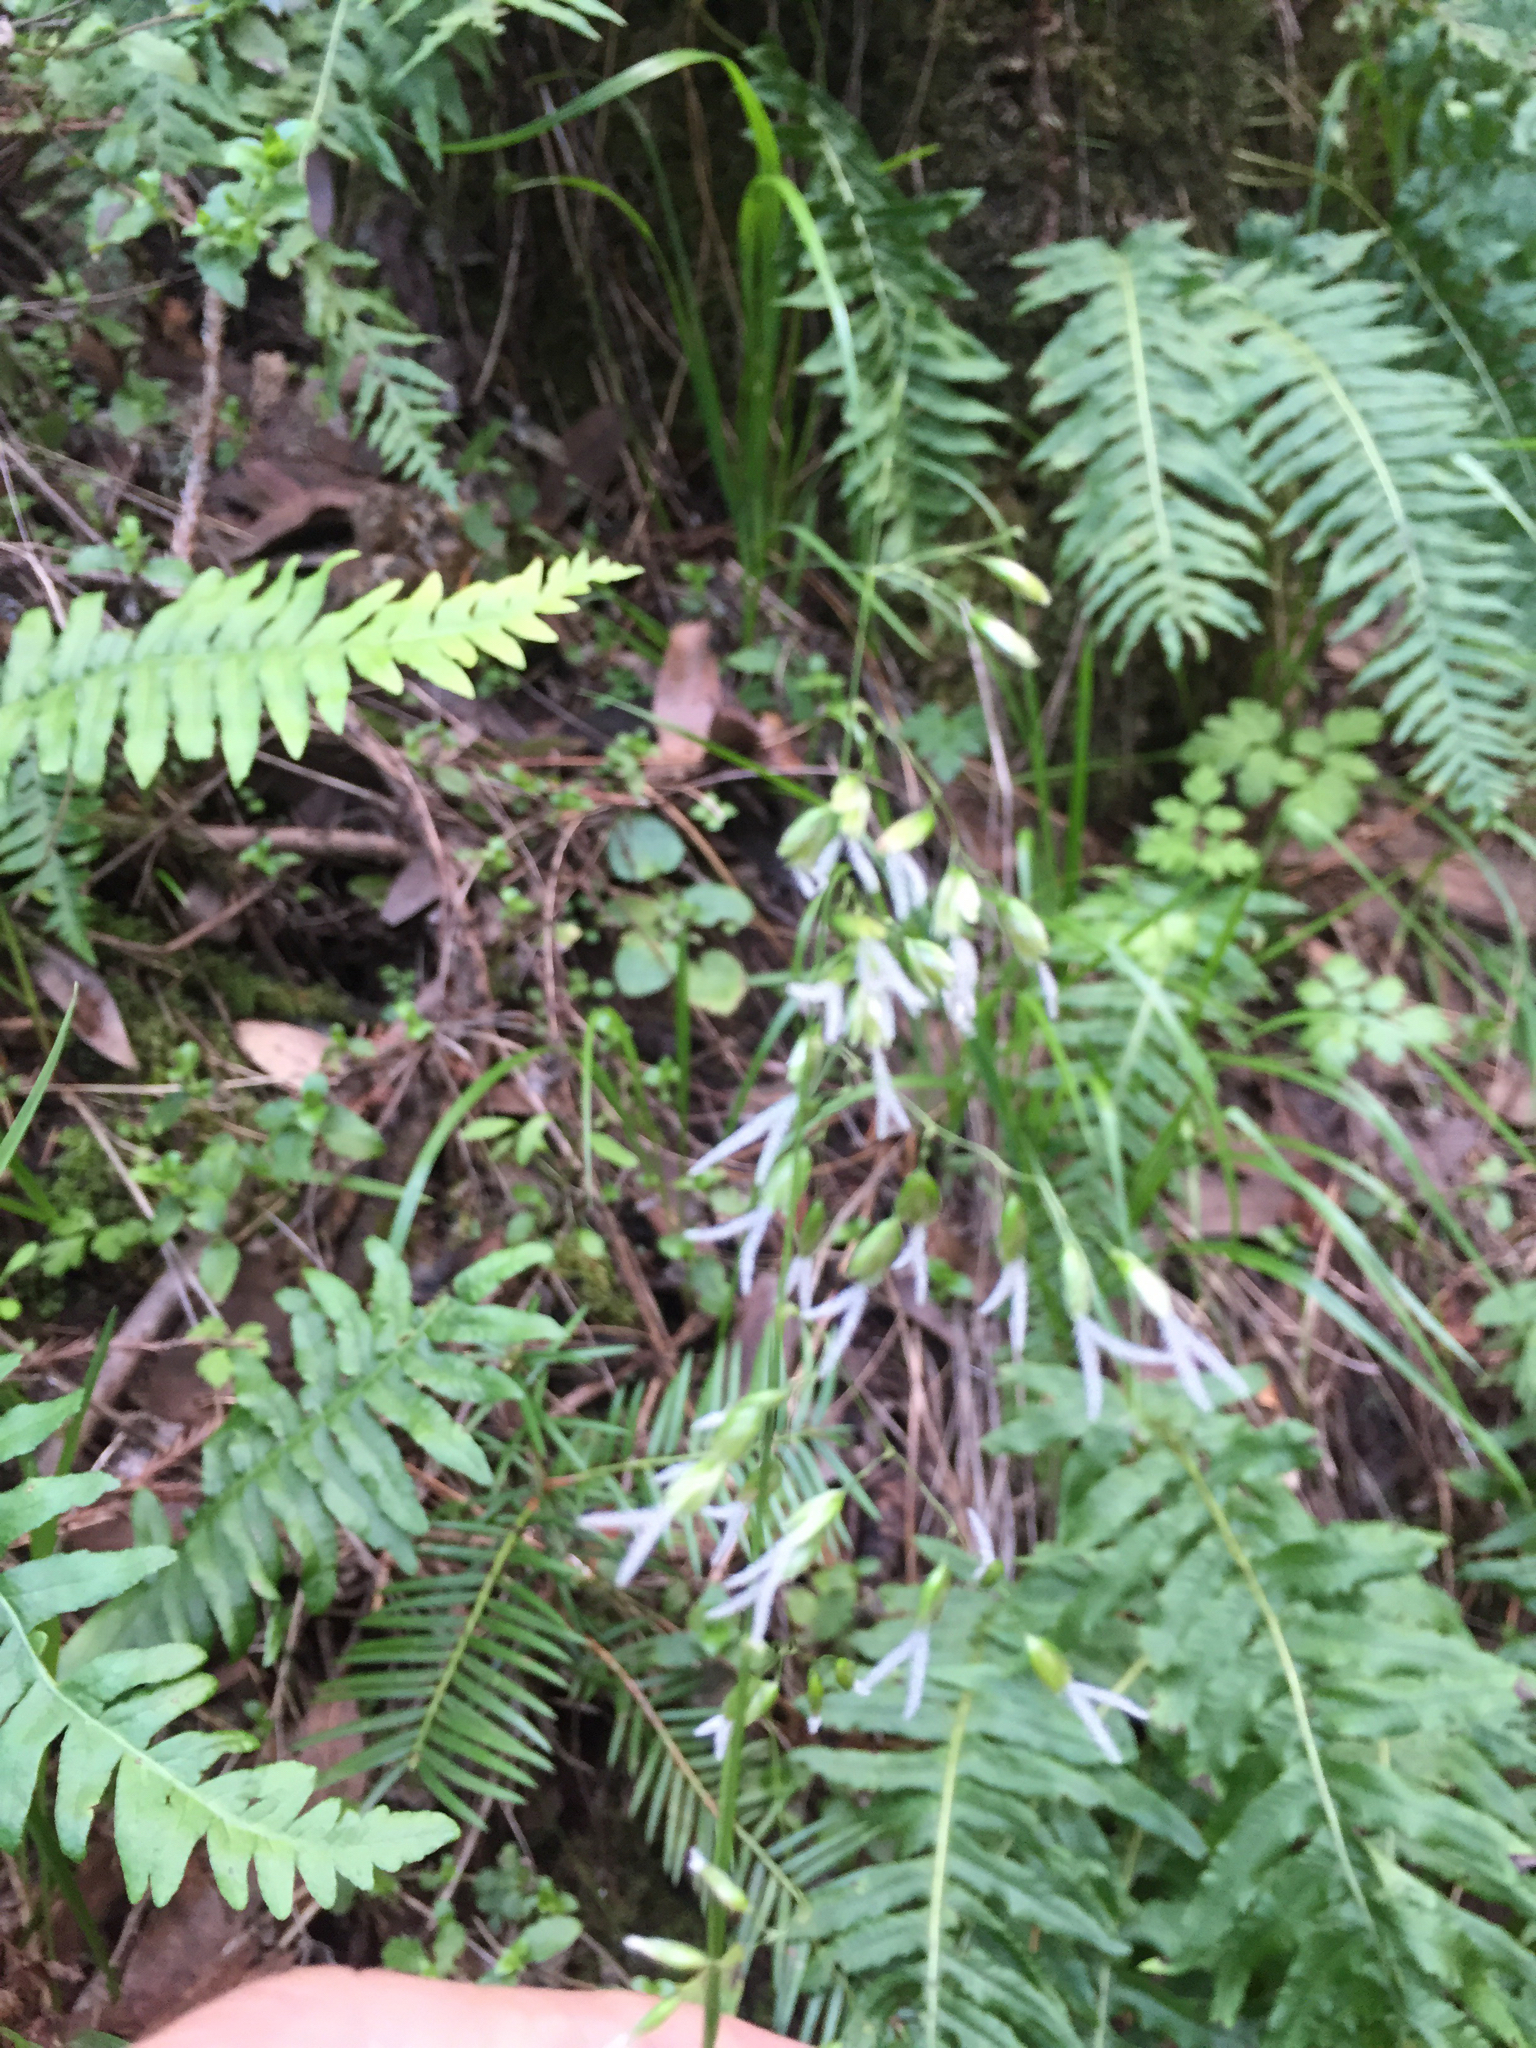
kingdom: Plantae
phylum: Tracheophyta
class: Liliopsida
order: Poales
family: Poaceae
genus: Anthoxanthum
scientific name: Anthoxanthum occidentale
